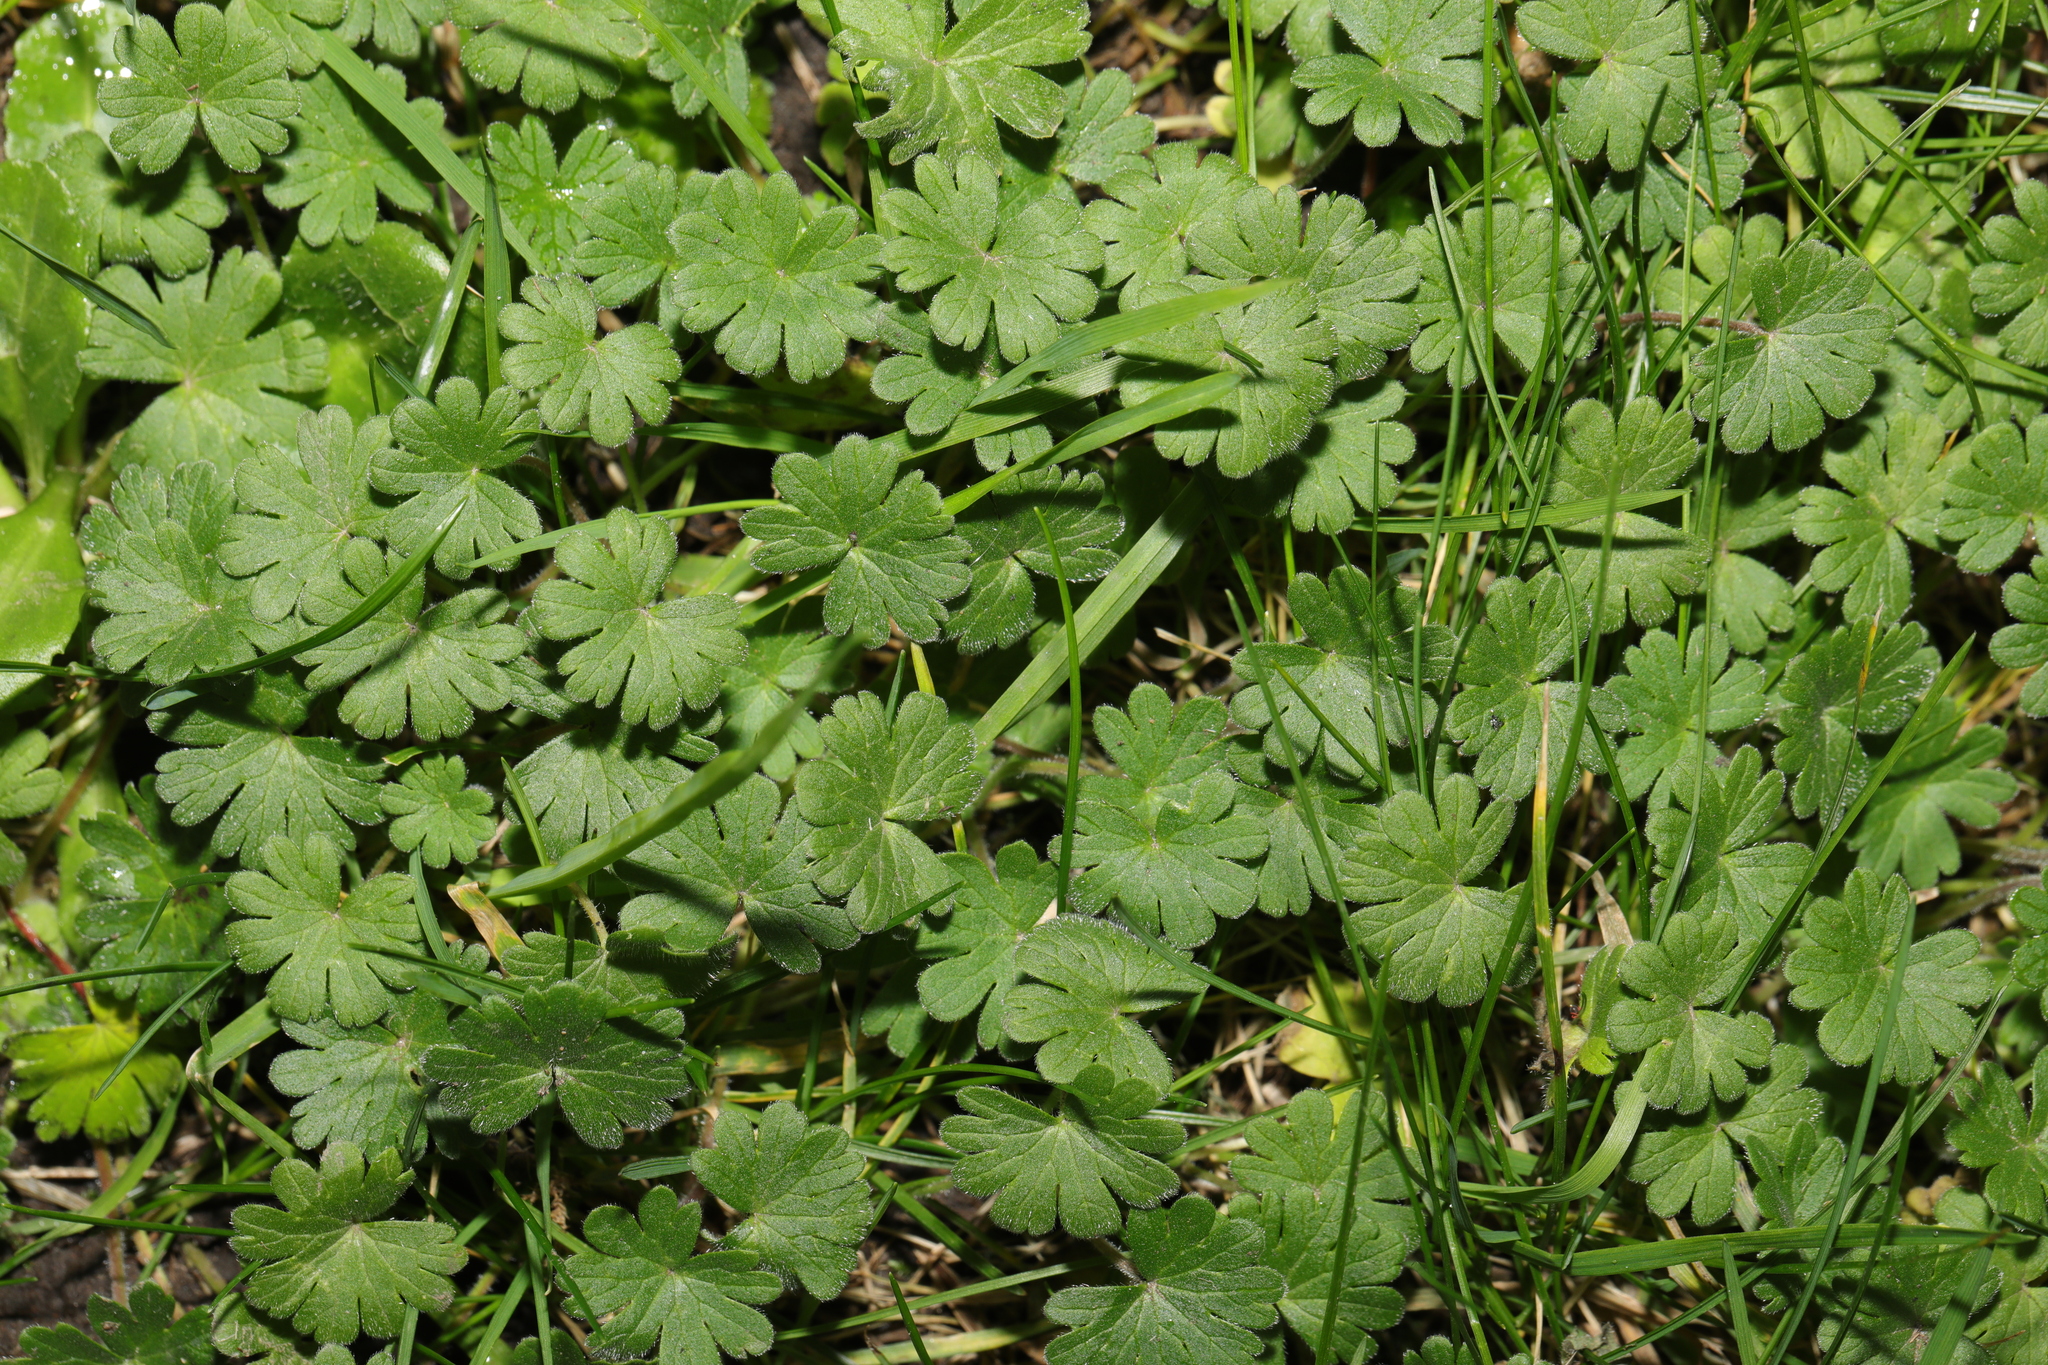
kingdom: Plantae
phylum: Tracheophyta
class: Magnoliopsida
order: Geraniales
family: Geraniaceae
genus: Geranium
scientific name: Geranium molle
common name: Dove's-foot crane's-bill
